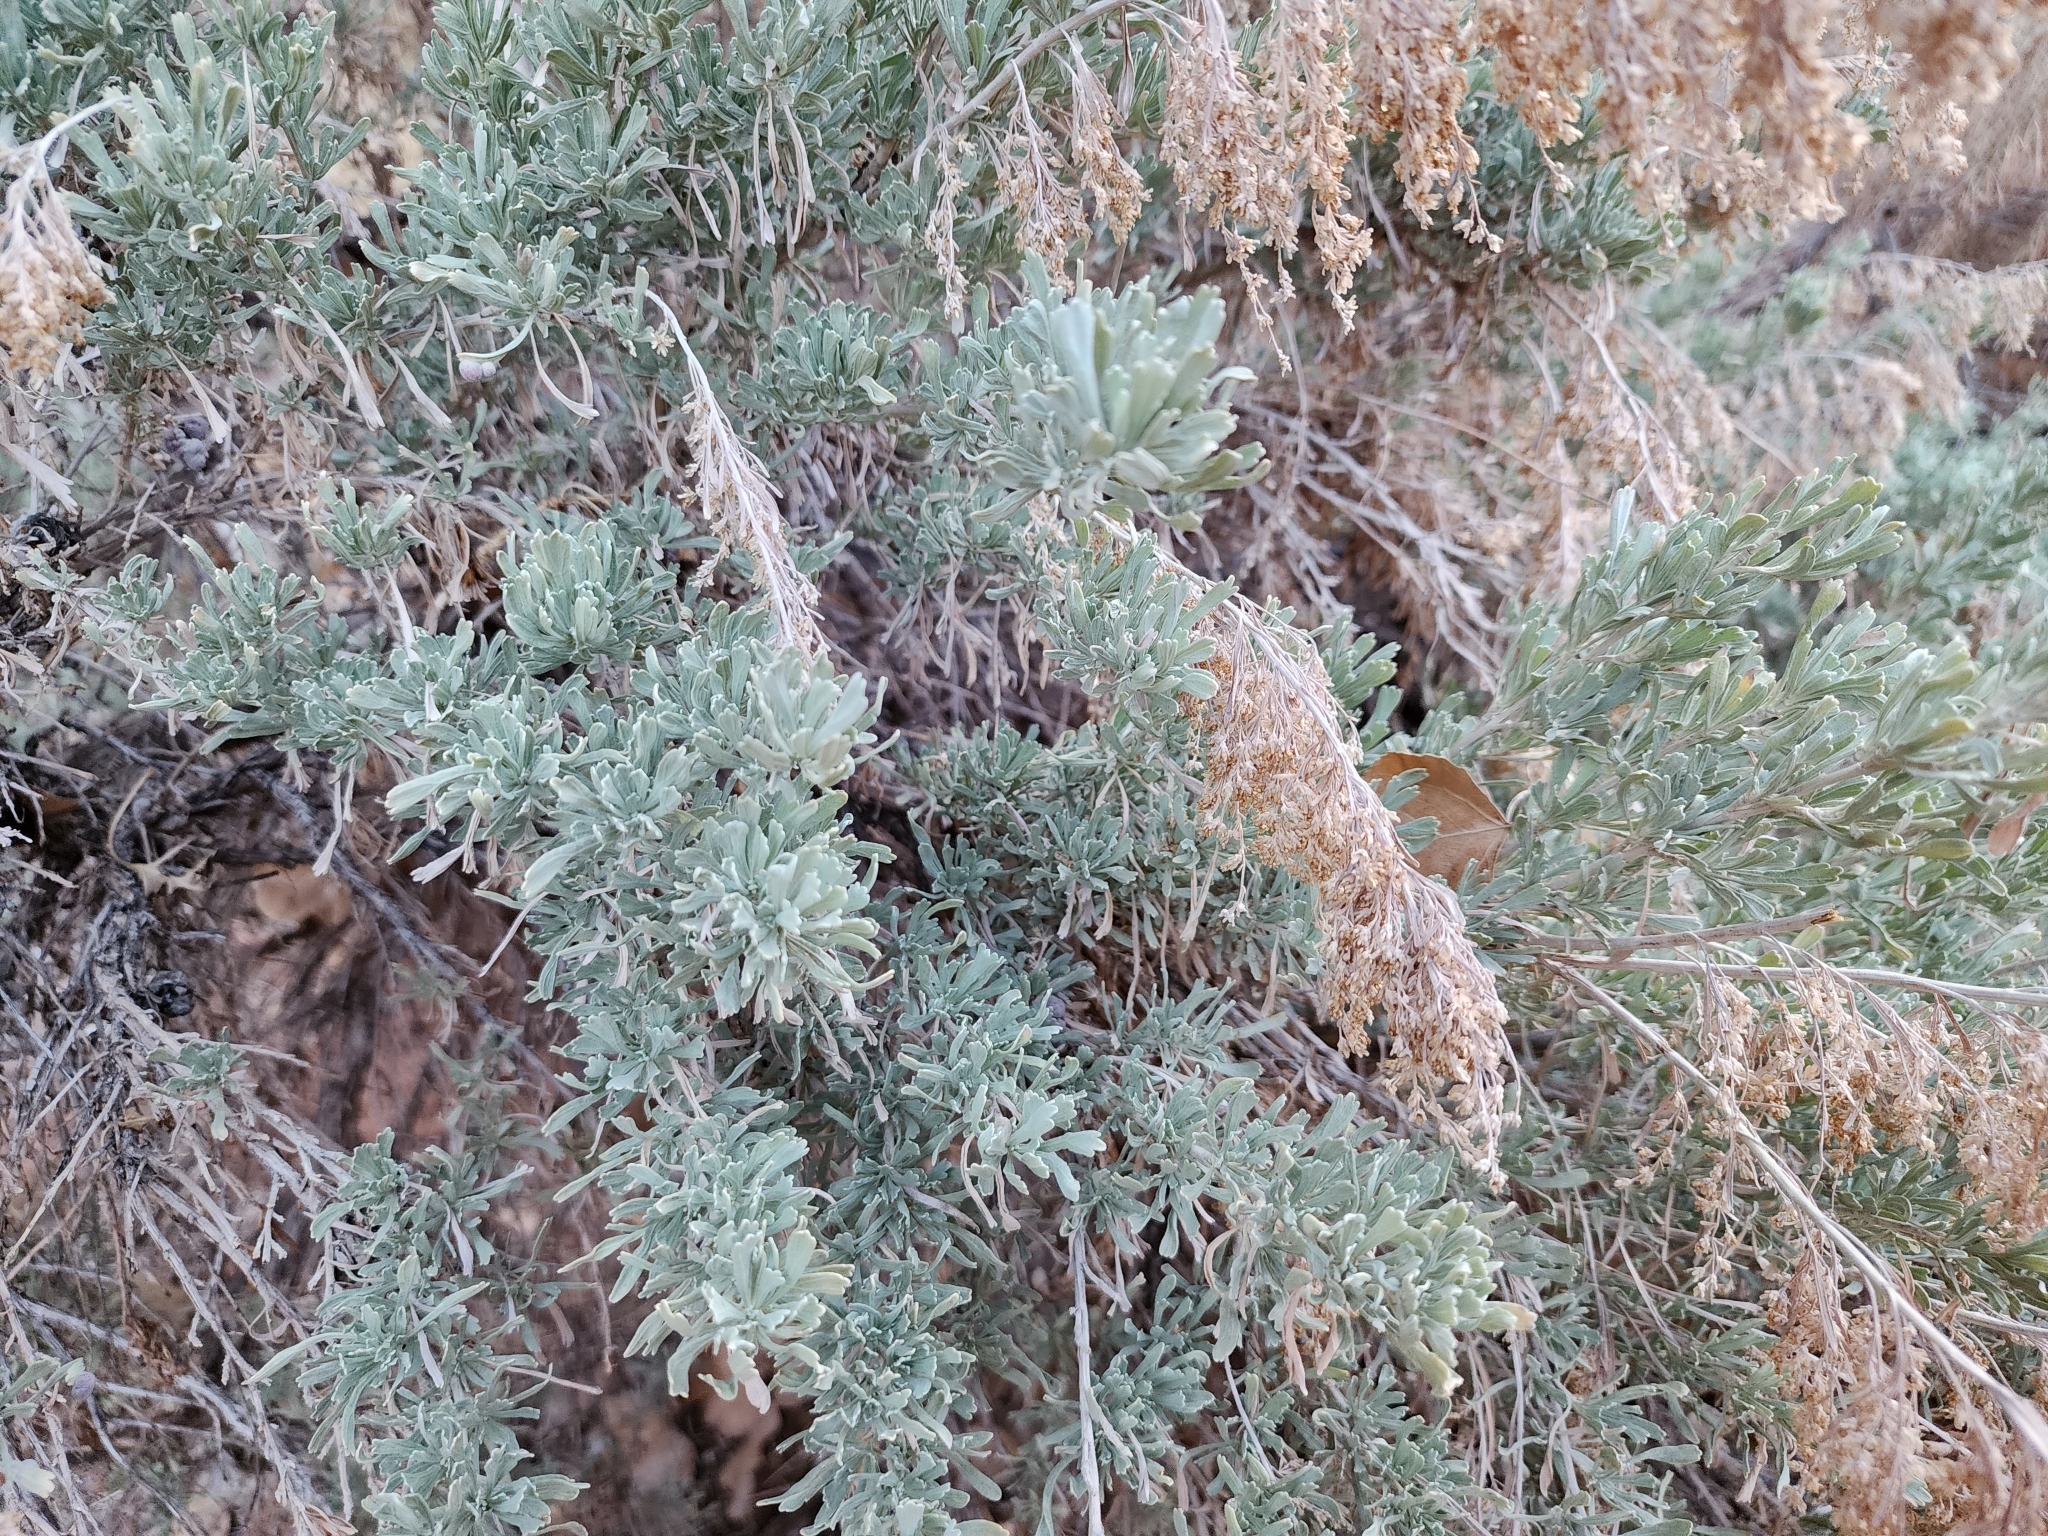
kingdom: Plantae
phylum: Tracheophyta
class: Magnoliopsida
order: Asterales
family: Asteraceae
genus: Artemisia
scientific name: Artemisia tridentata
